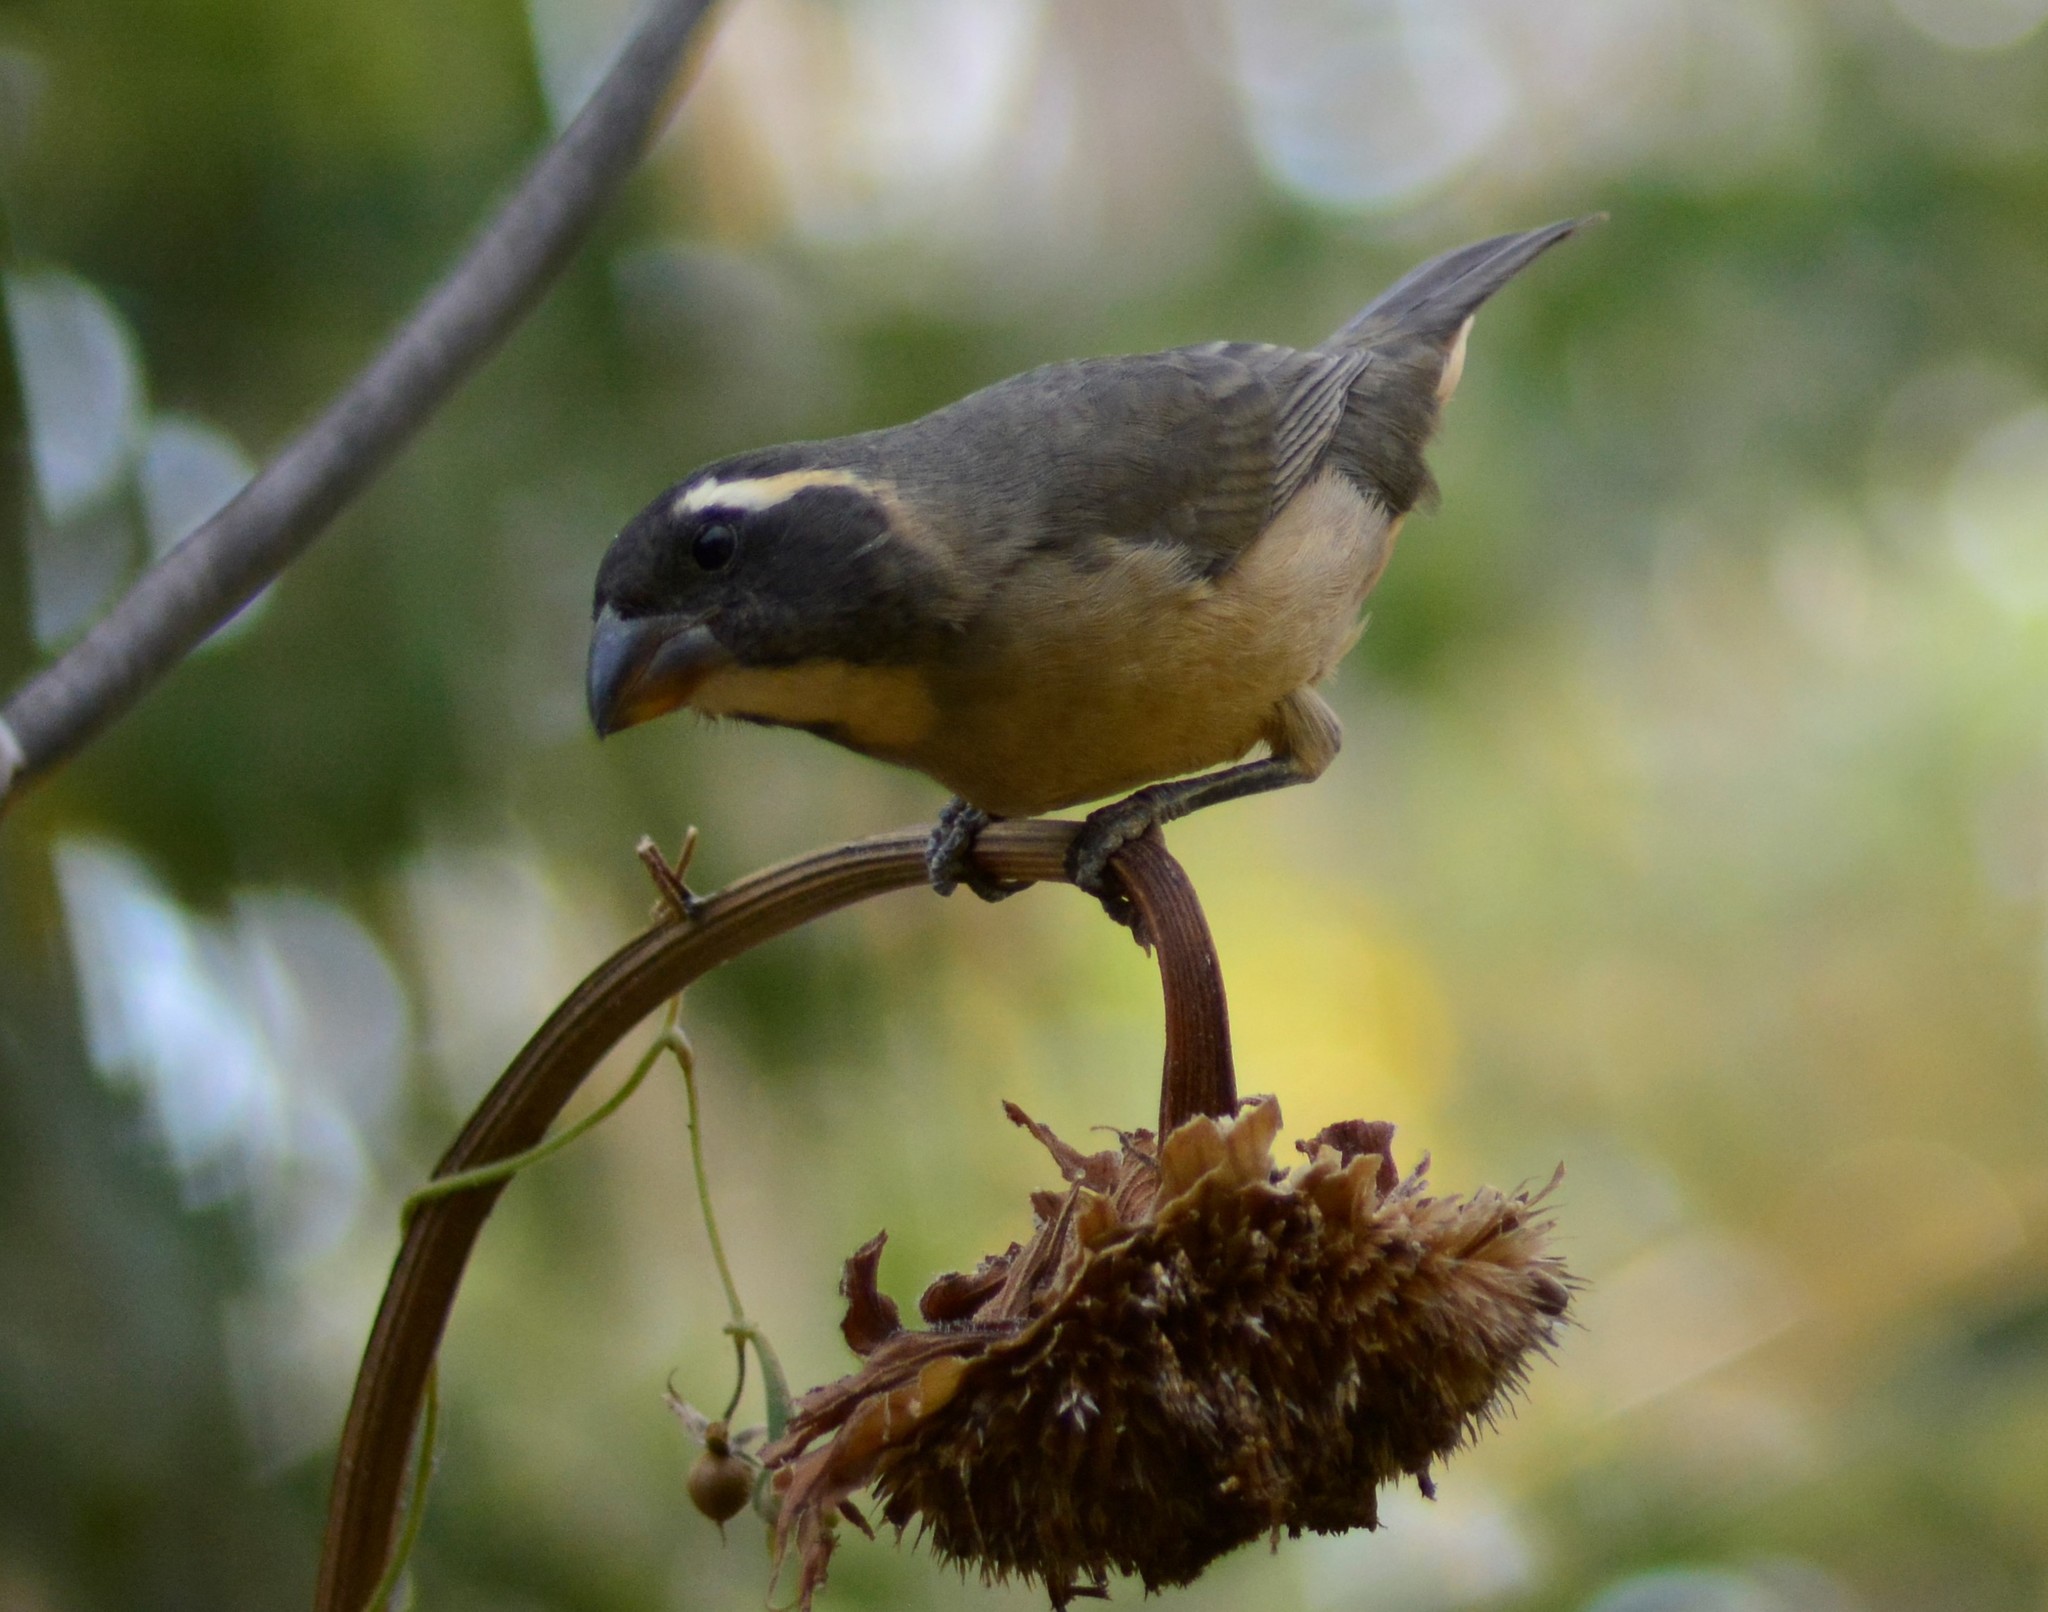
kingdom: Animalia
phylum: Chordata
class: Aves
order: Passeriformes
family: Thraupidae
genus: Saltator
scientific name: Saltator aurantiirostris
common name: Golden-billed saltator
